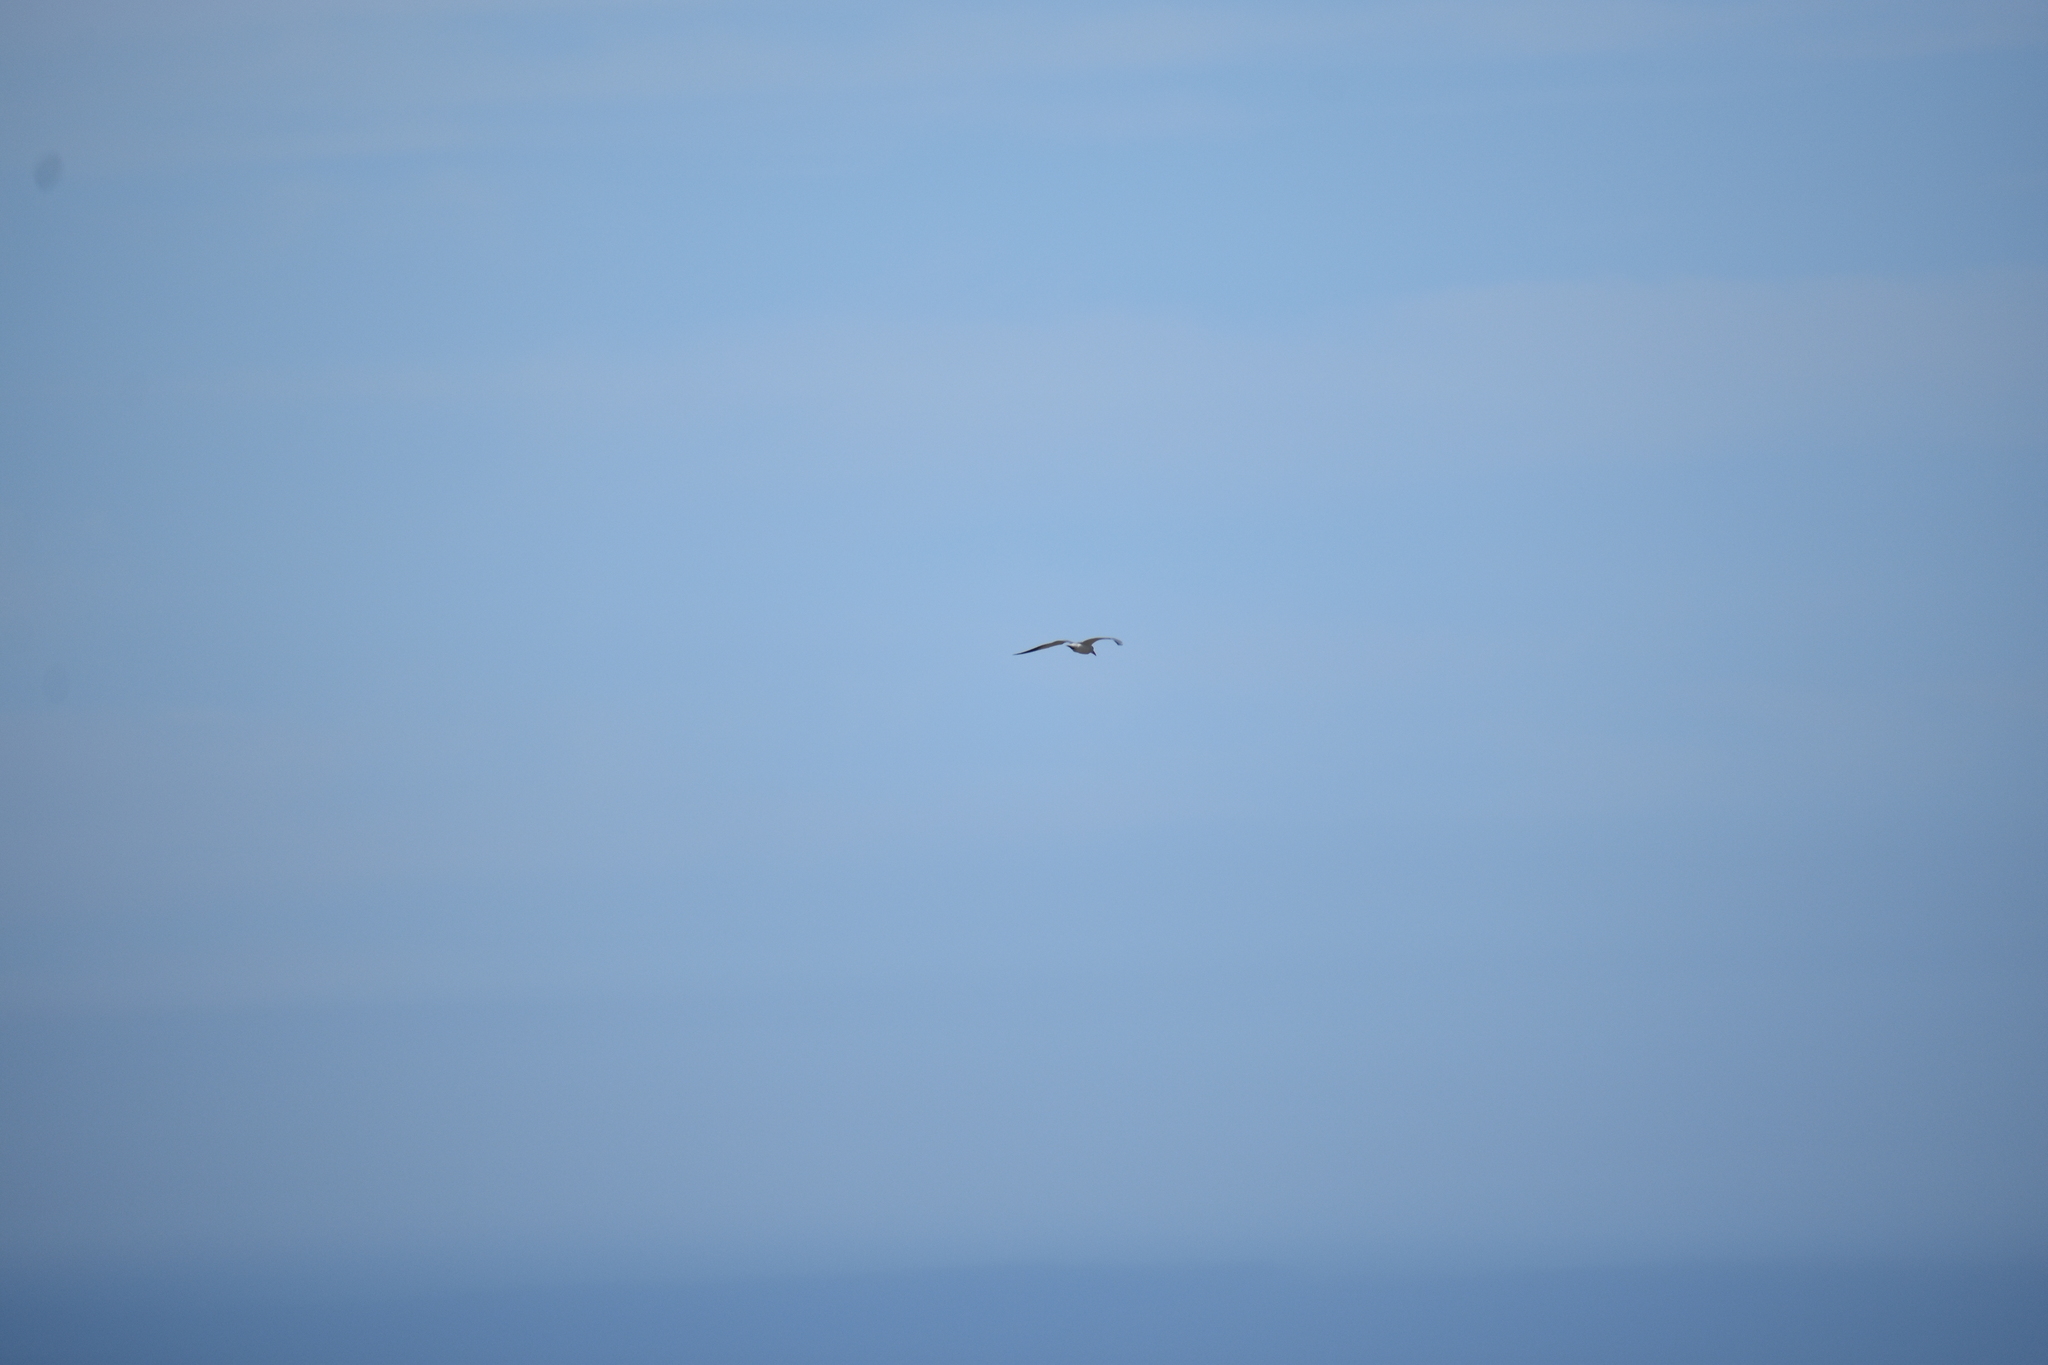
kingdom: Animalia
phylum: Chordata
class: Aves
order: Charadriiformes
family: Laridae
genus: Hydroprogne
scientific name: Hydroprogne caspia
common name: Caspian tern
